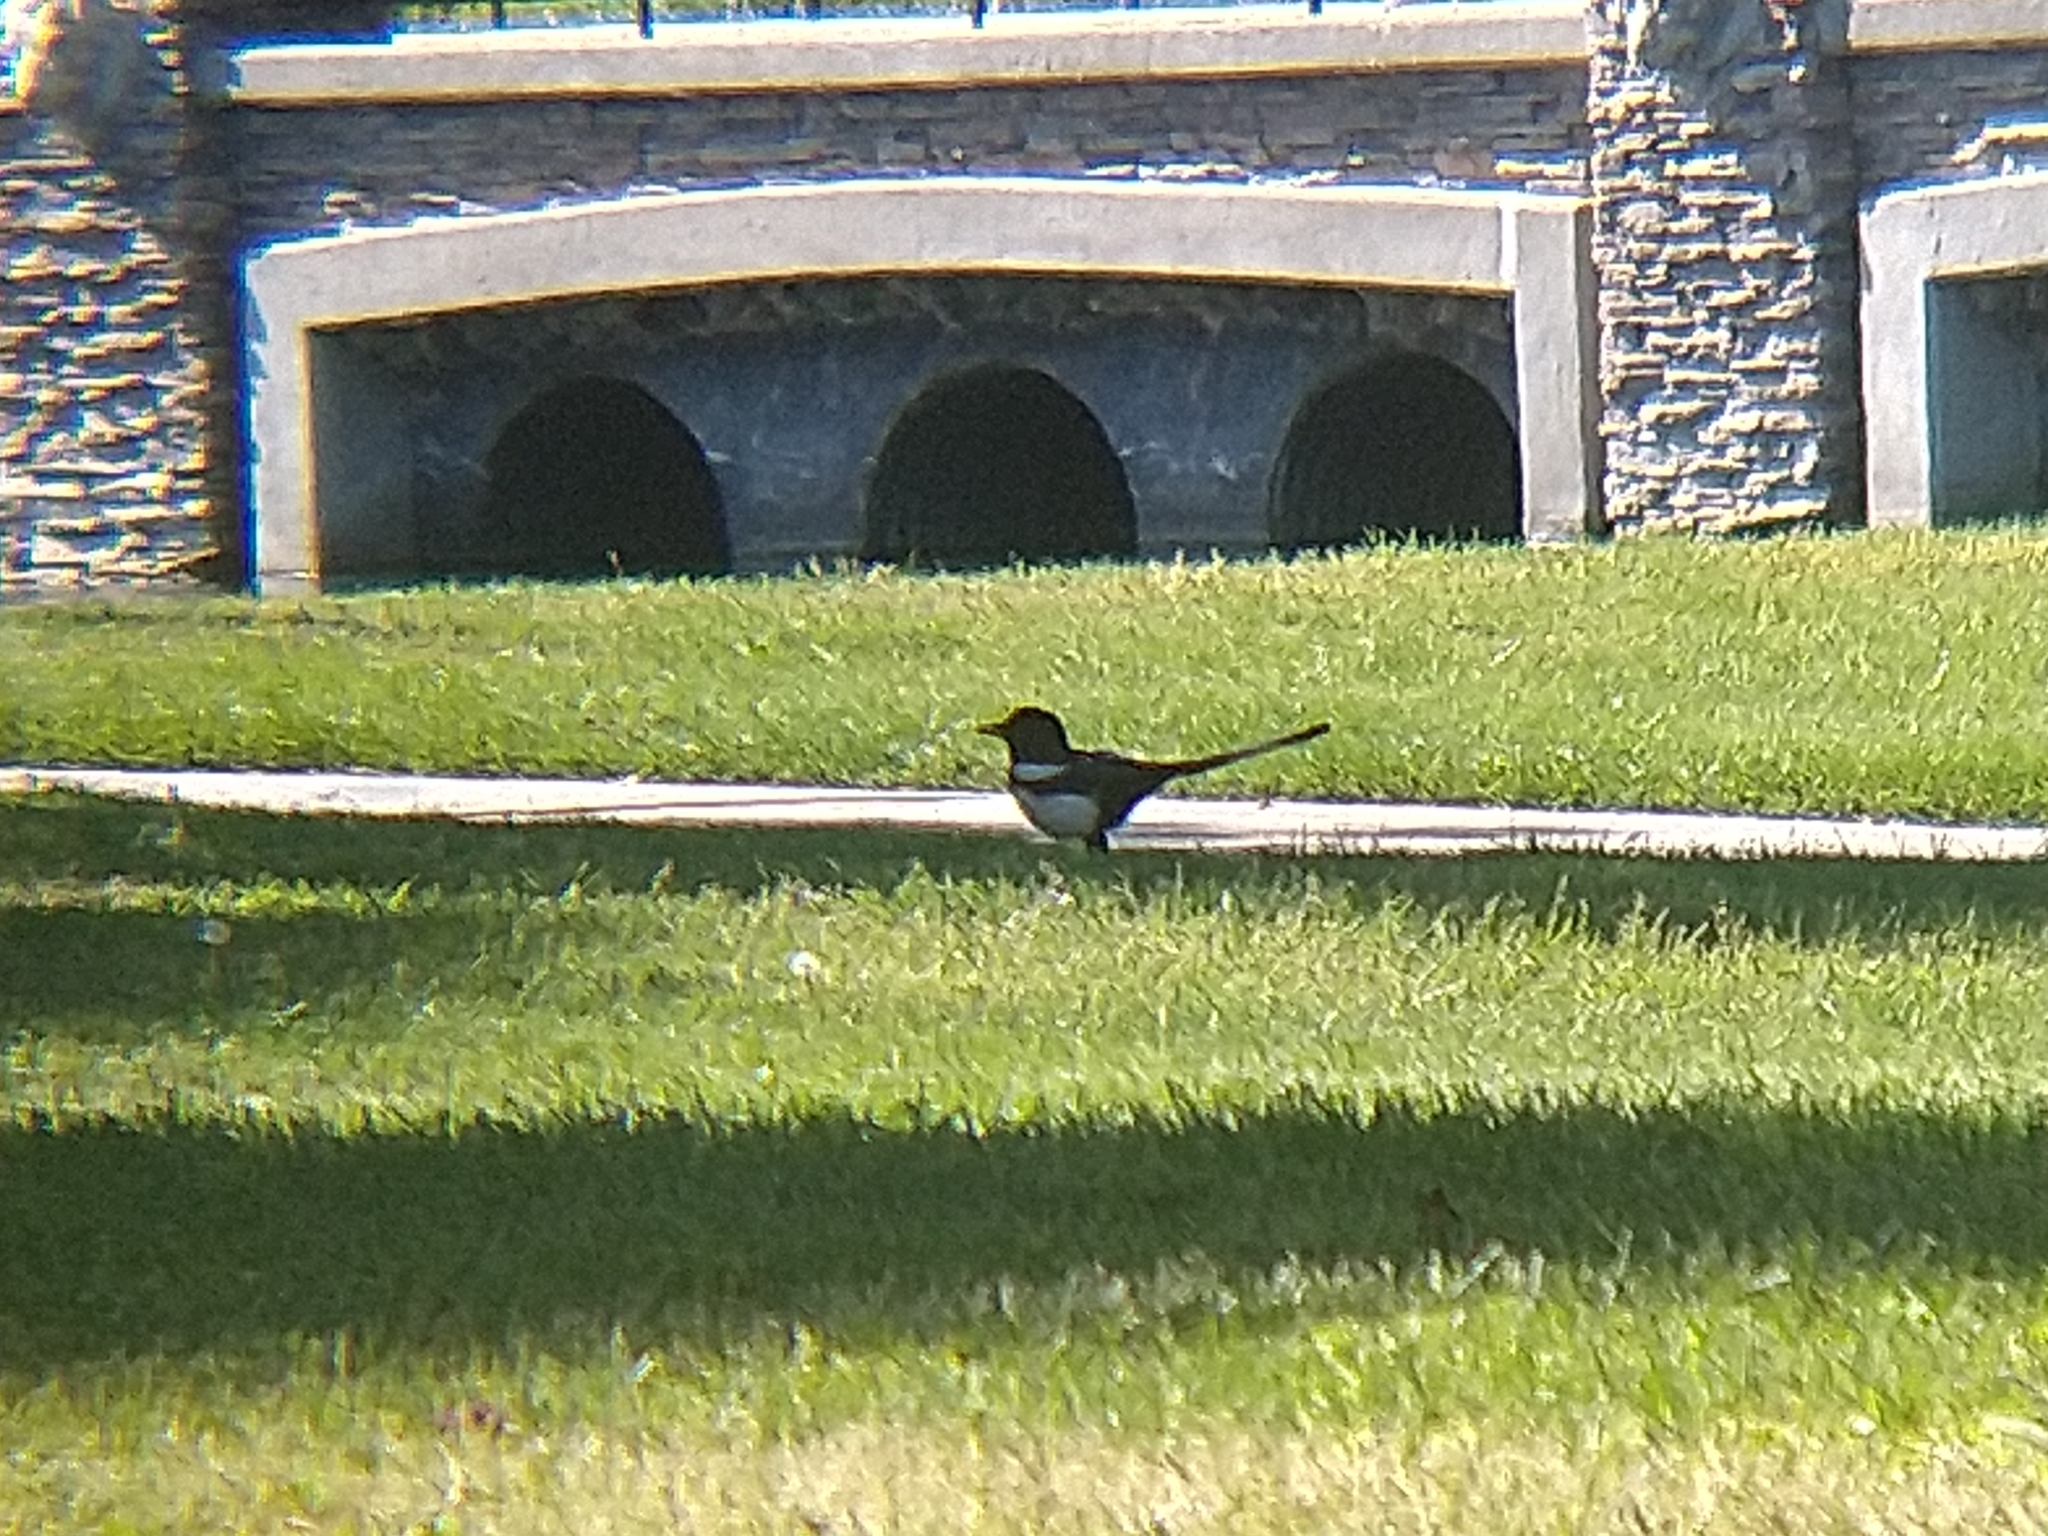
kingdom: Animalia
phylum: Chordata
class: Aves
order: Passeriformes
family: Corvidae
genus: Pica
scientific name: Pica nuttalli
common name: Yellow-billed magpie
